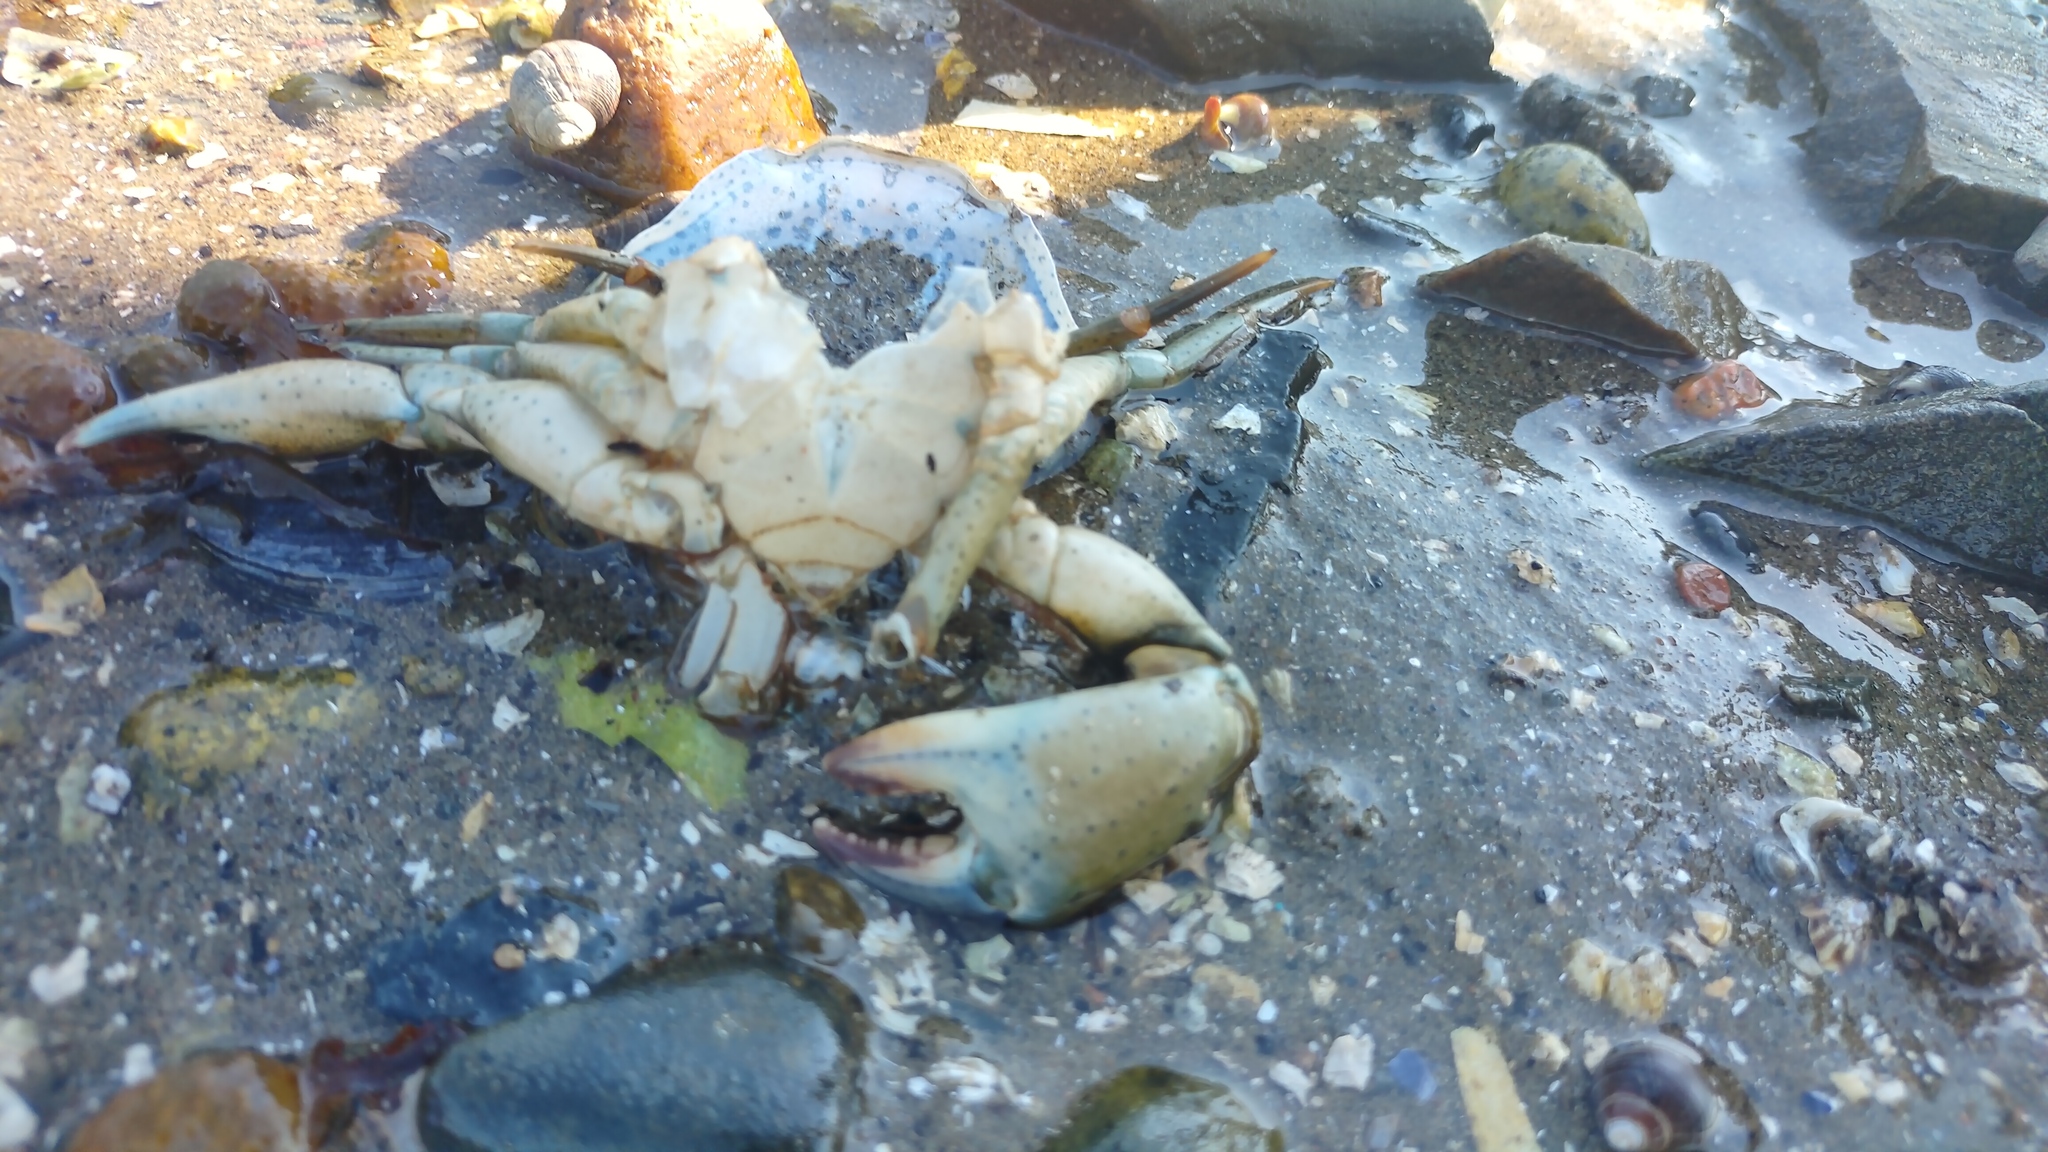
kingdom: Animalia
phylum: Arthropoda
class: Malacostraca
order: Decapoda
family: Carcinidae
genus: Carcinus
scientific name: Carcinus maenas
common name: European green crab
